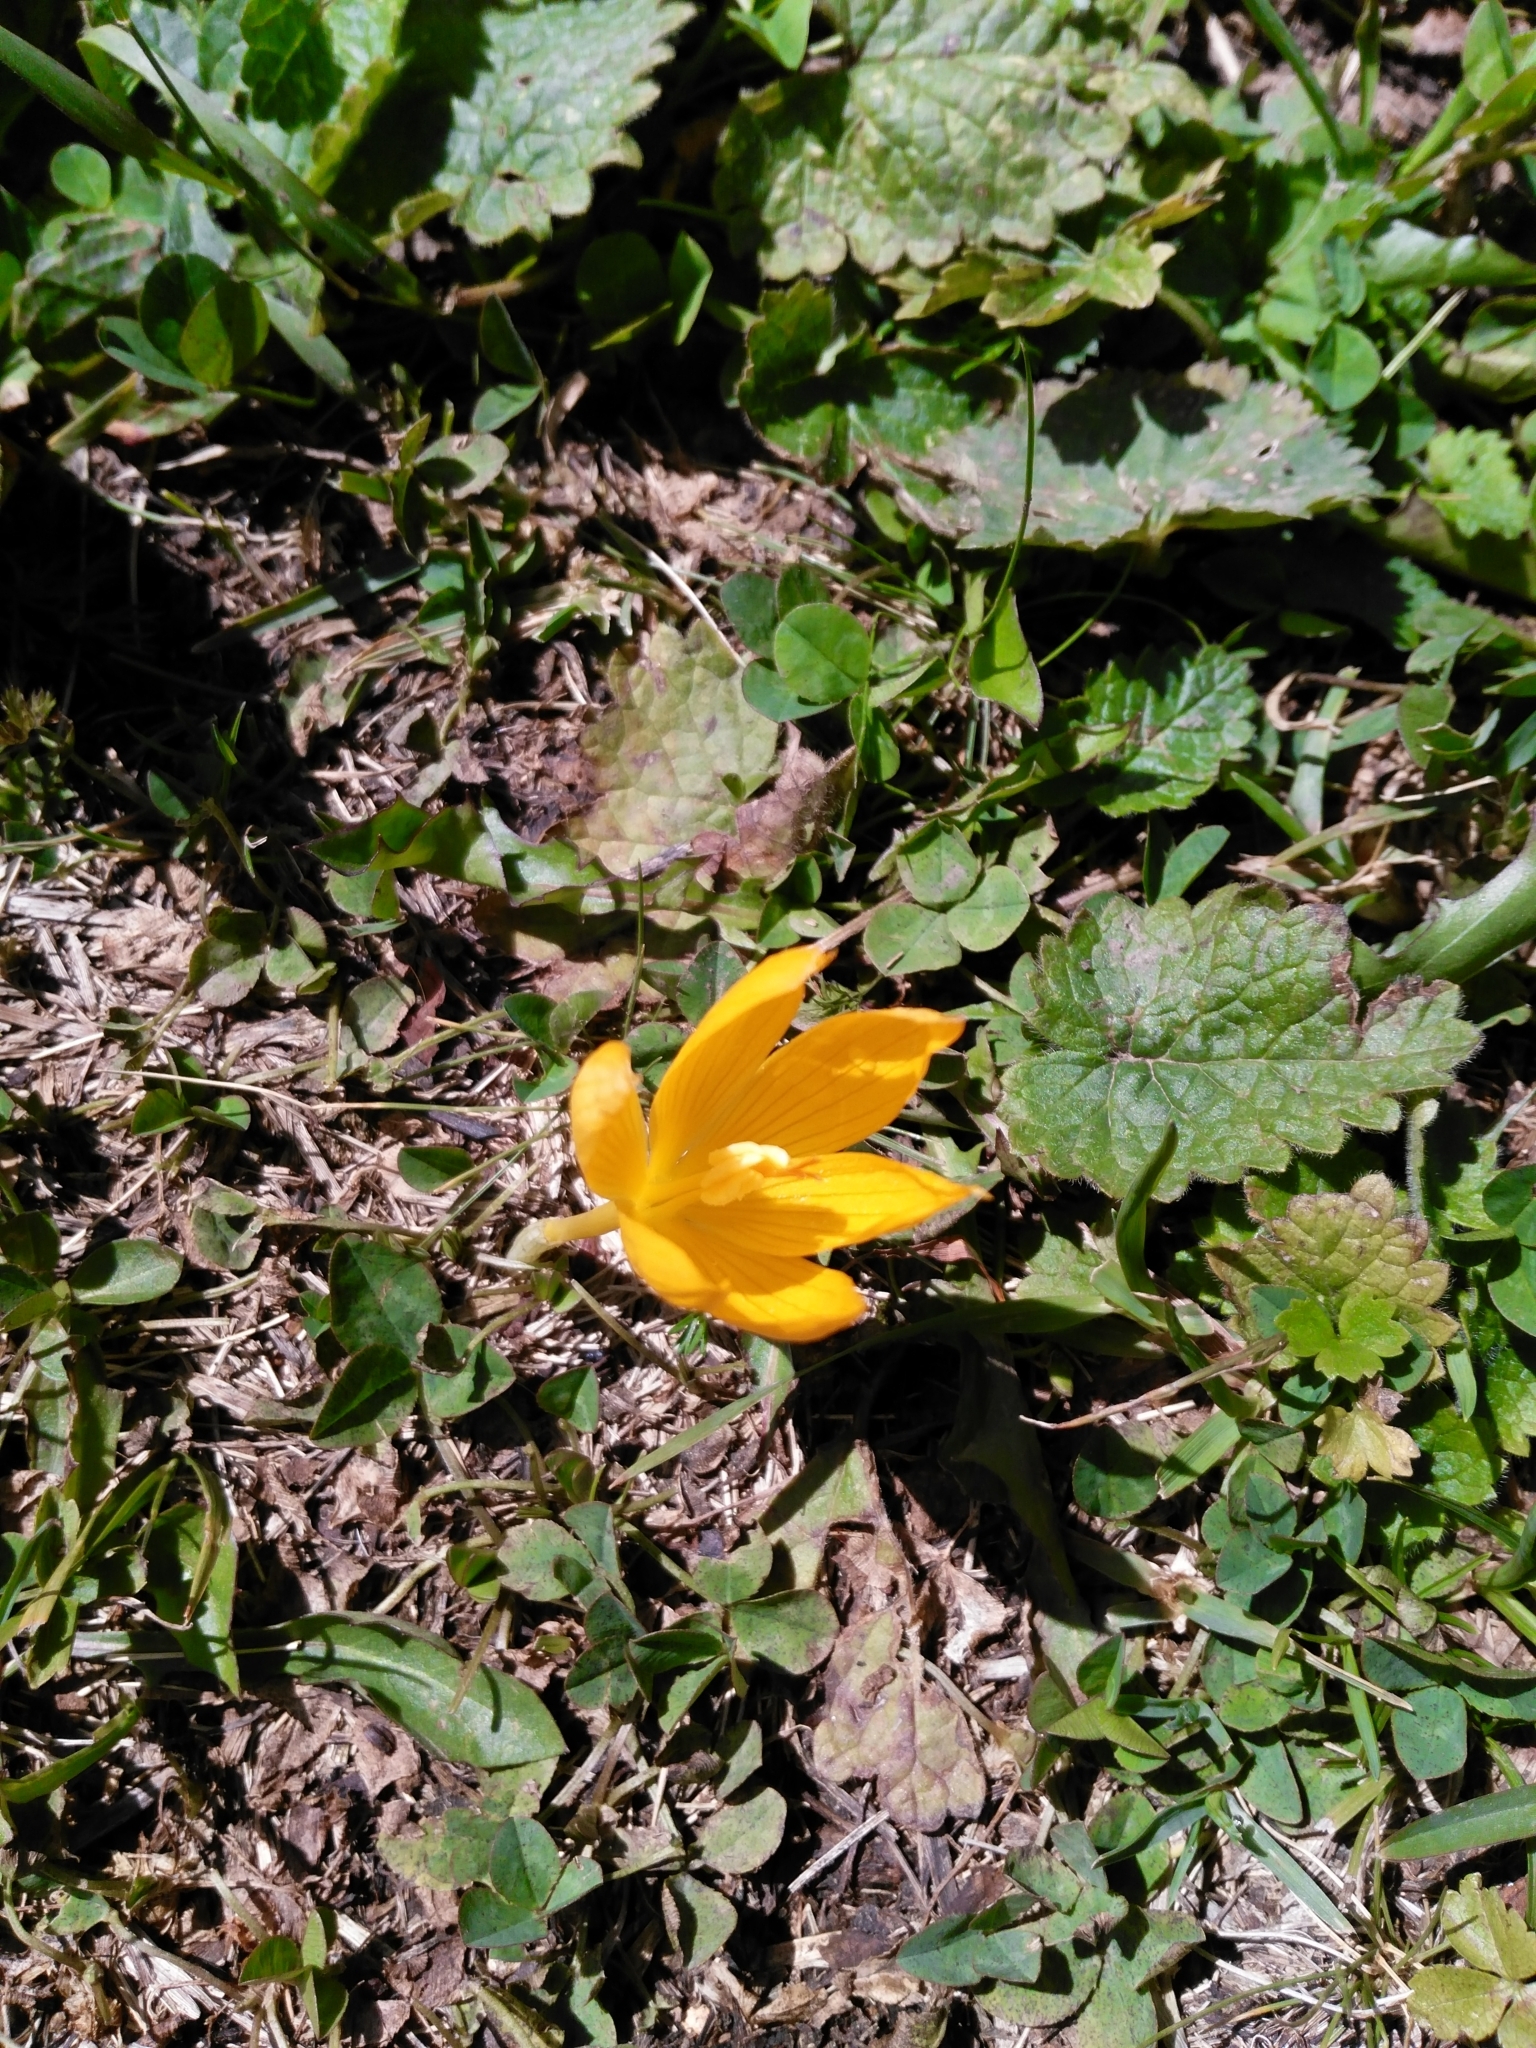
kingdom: Plantae
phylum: Tracheophyta
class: Liliopsida
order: Asparagales
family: Iridaceae
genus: Crocus
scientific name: Crocus scharojanii
